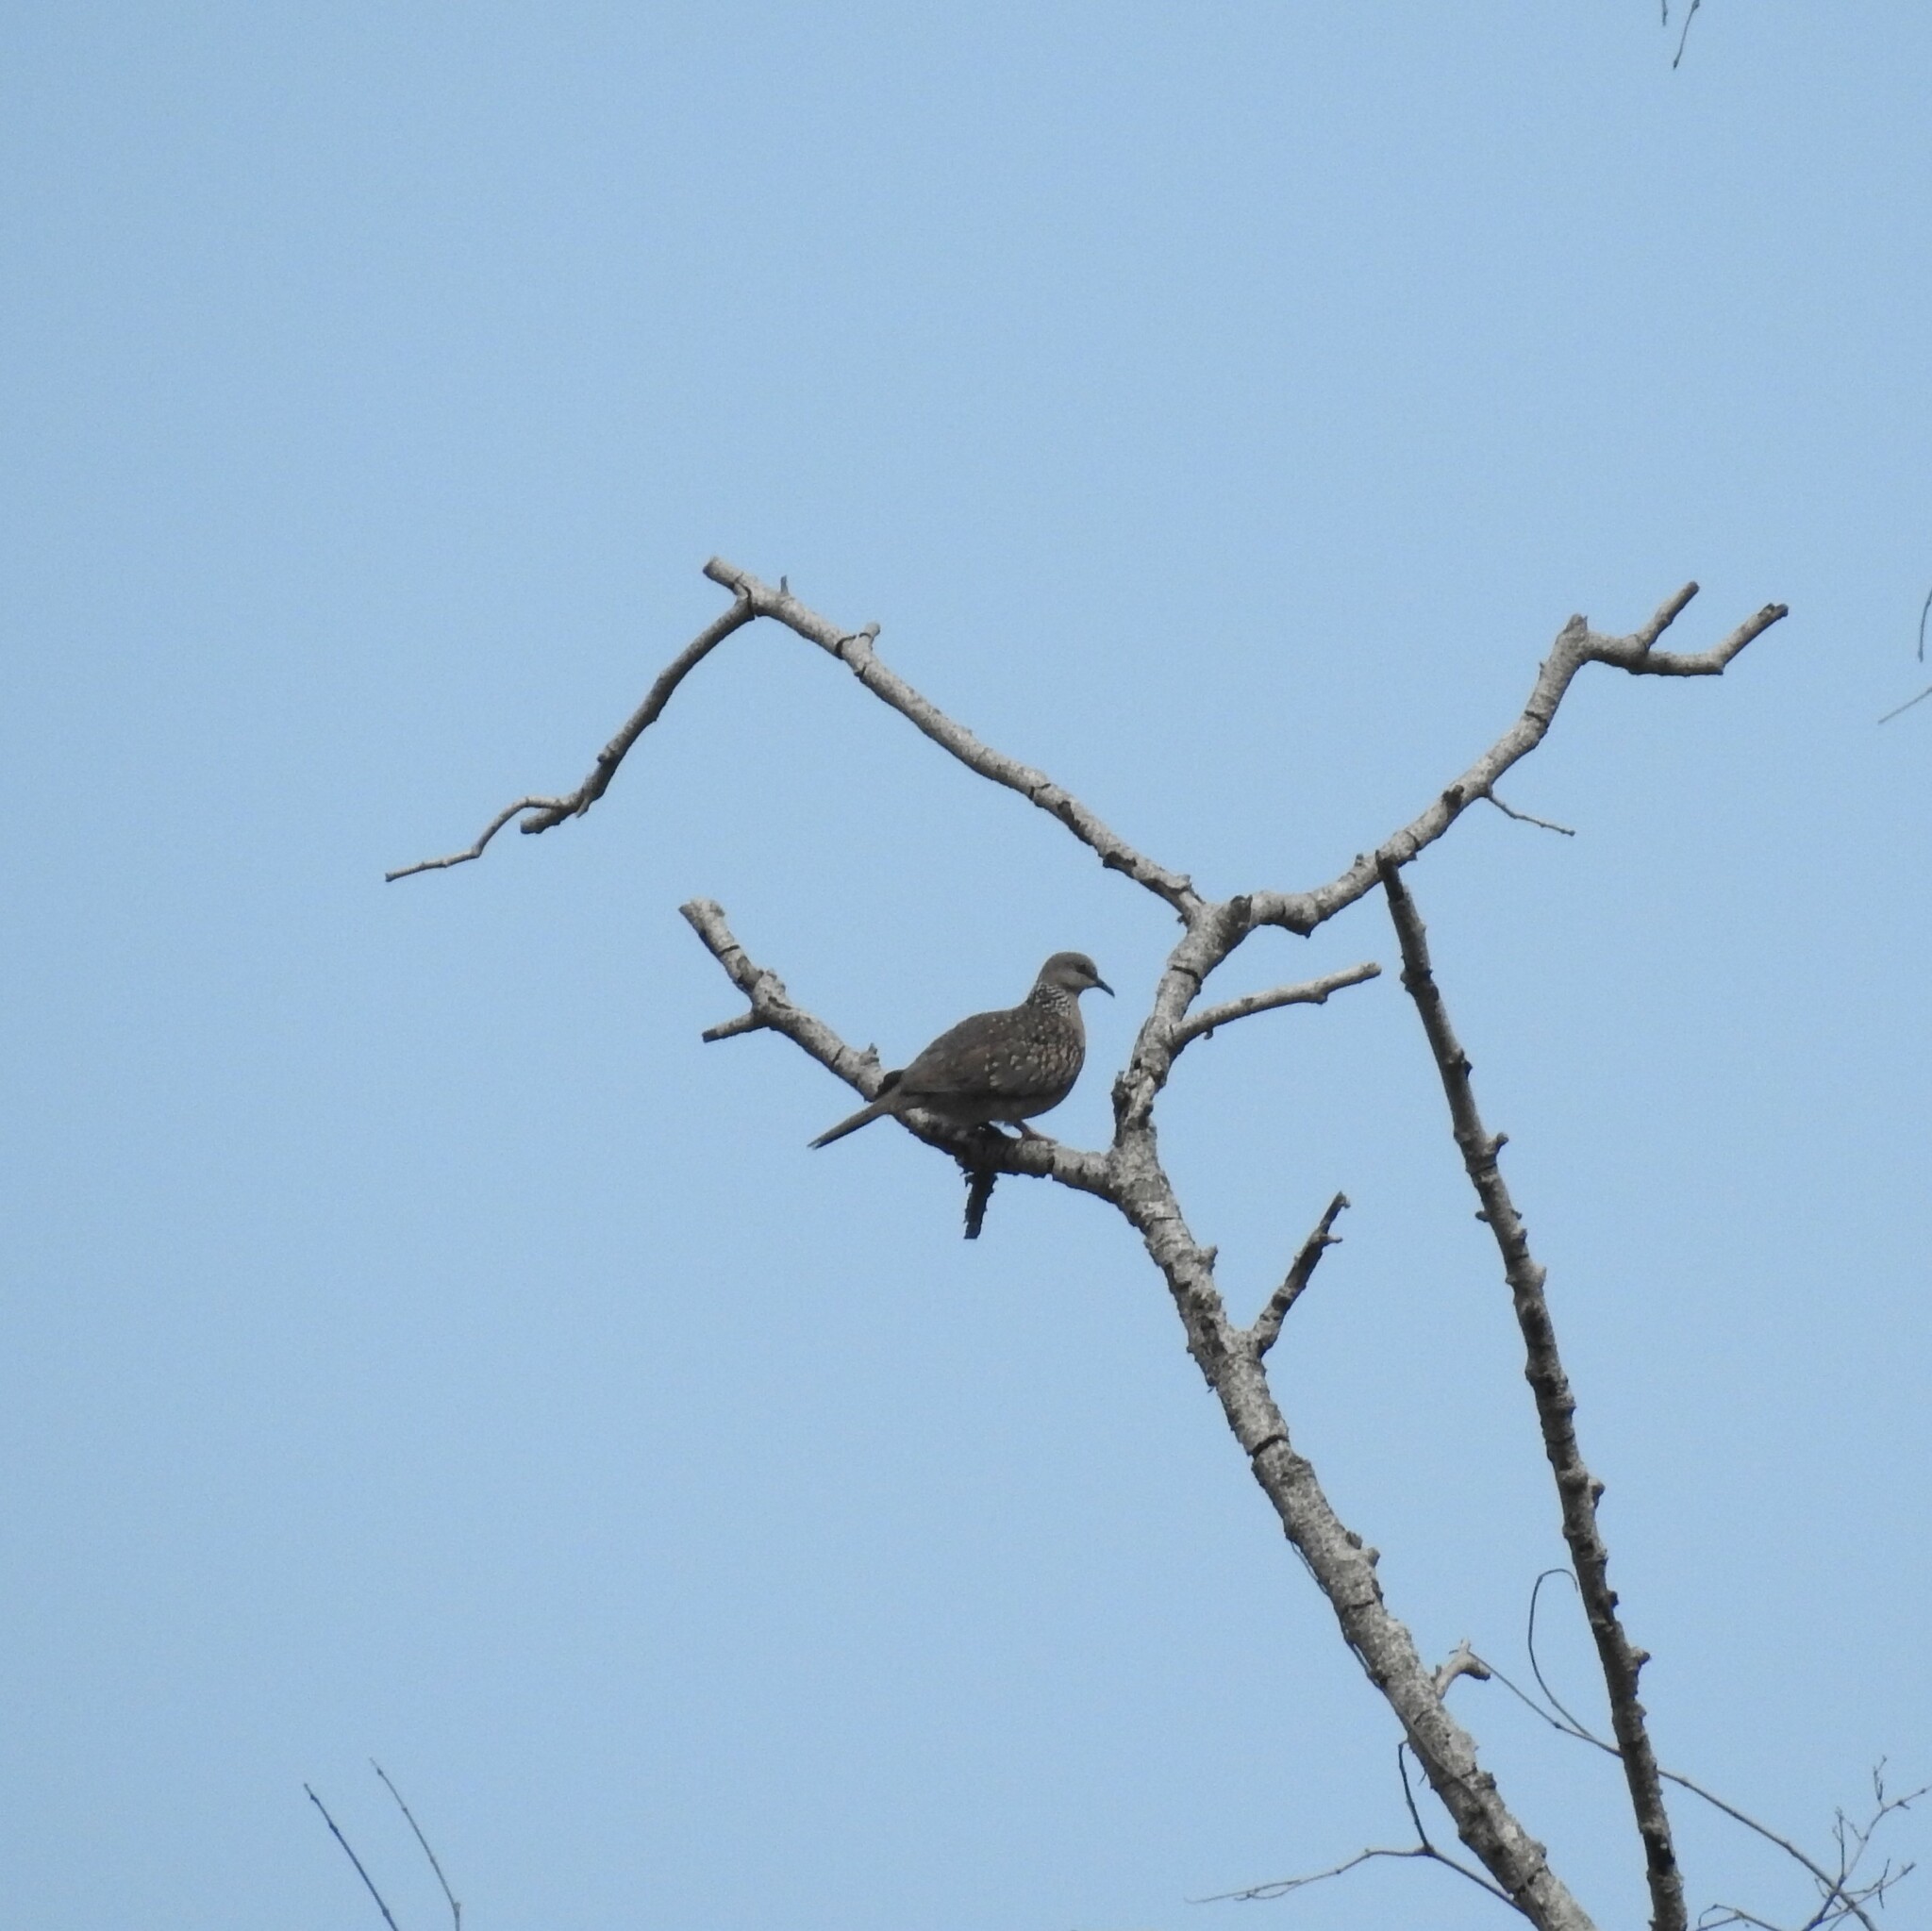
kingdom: Animalia
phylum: Chordata
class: Aves
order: Columbiformes
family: Columbidae
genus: Spilopelia
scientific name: Spilopelia chinensis
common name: Spotted dove
